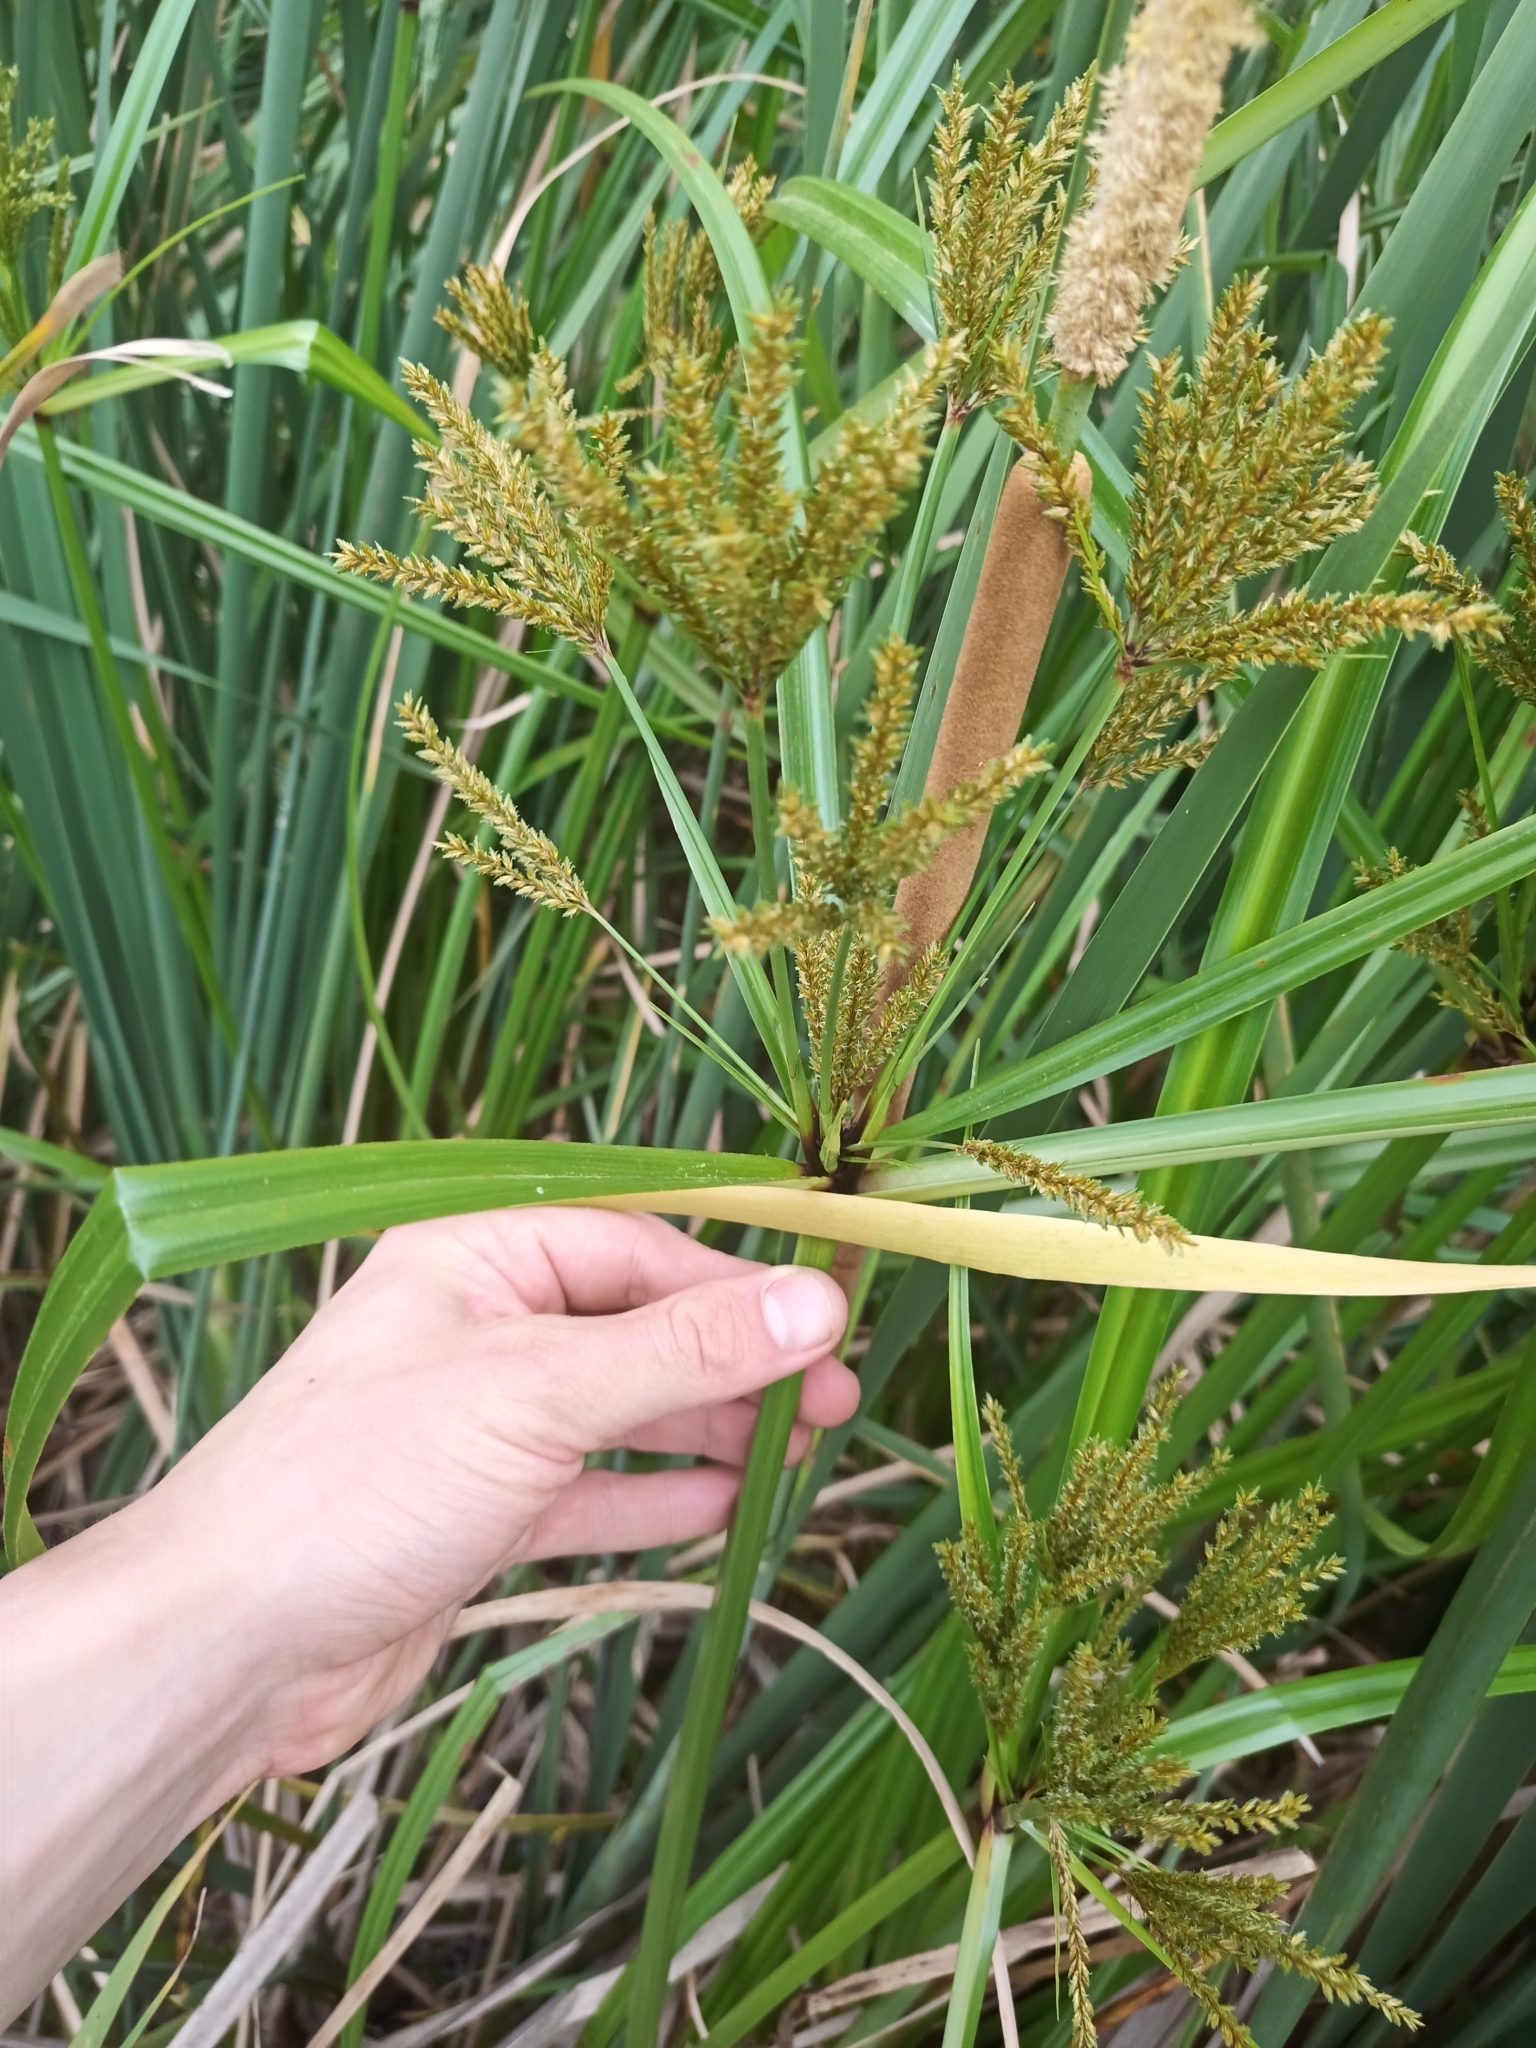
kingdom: Plantae
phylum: Tracheophyta
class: Liliopsida
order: Poales
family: Cyperaceae
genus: Cyperus
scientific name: Cyperus exaltatus
